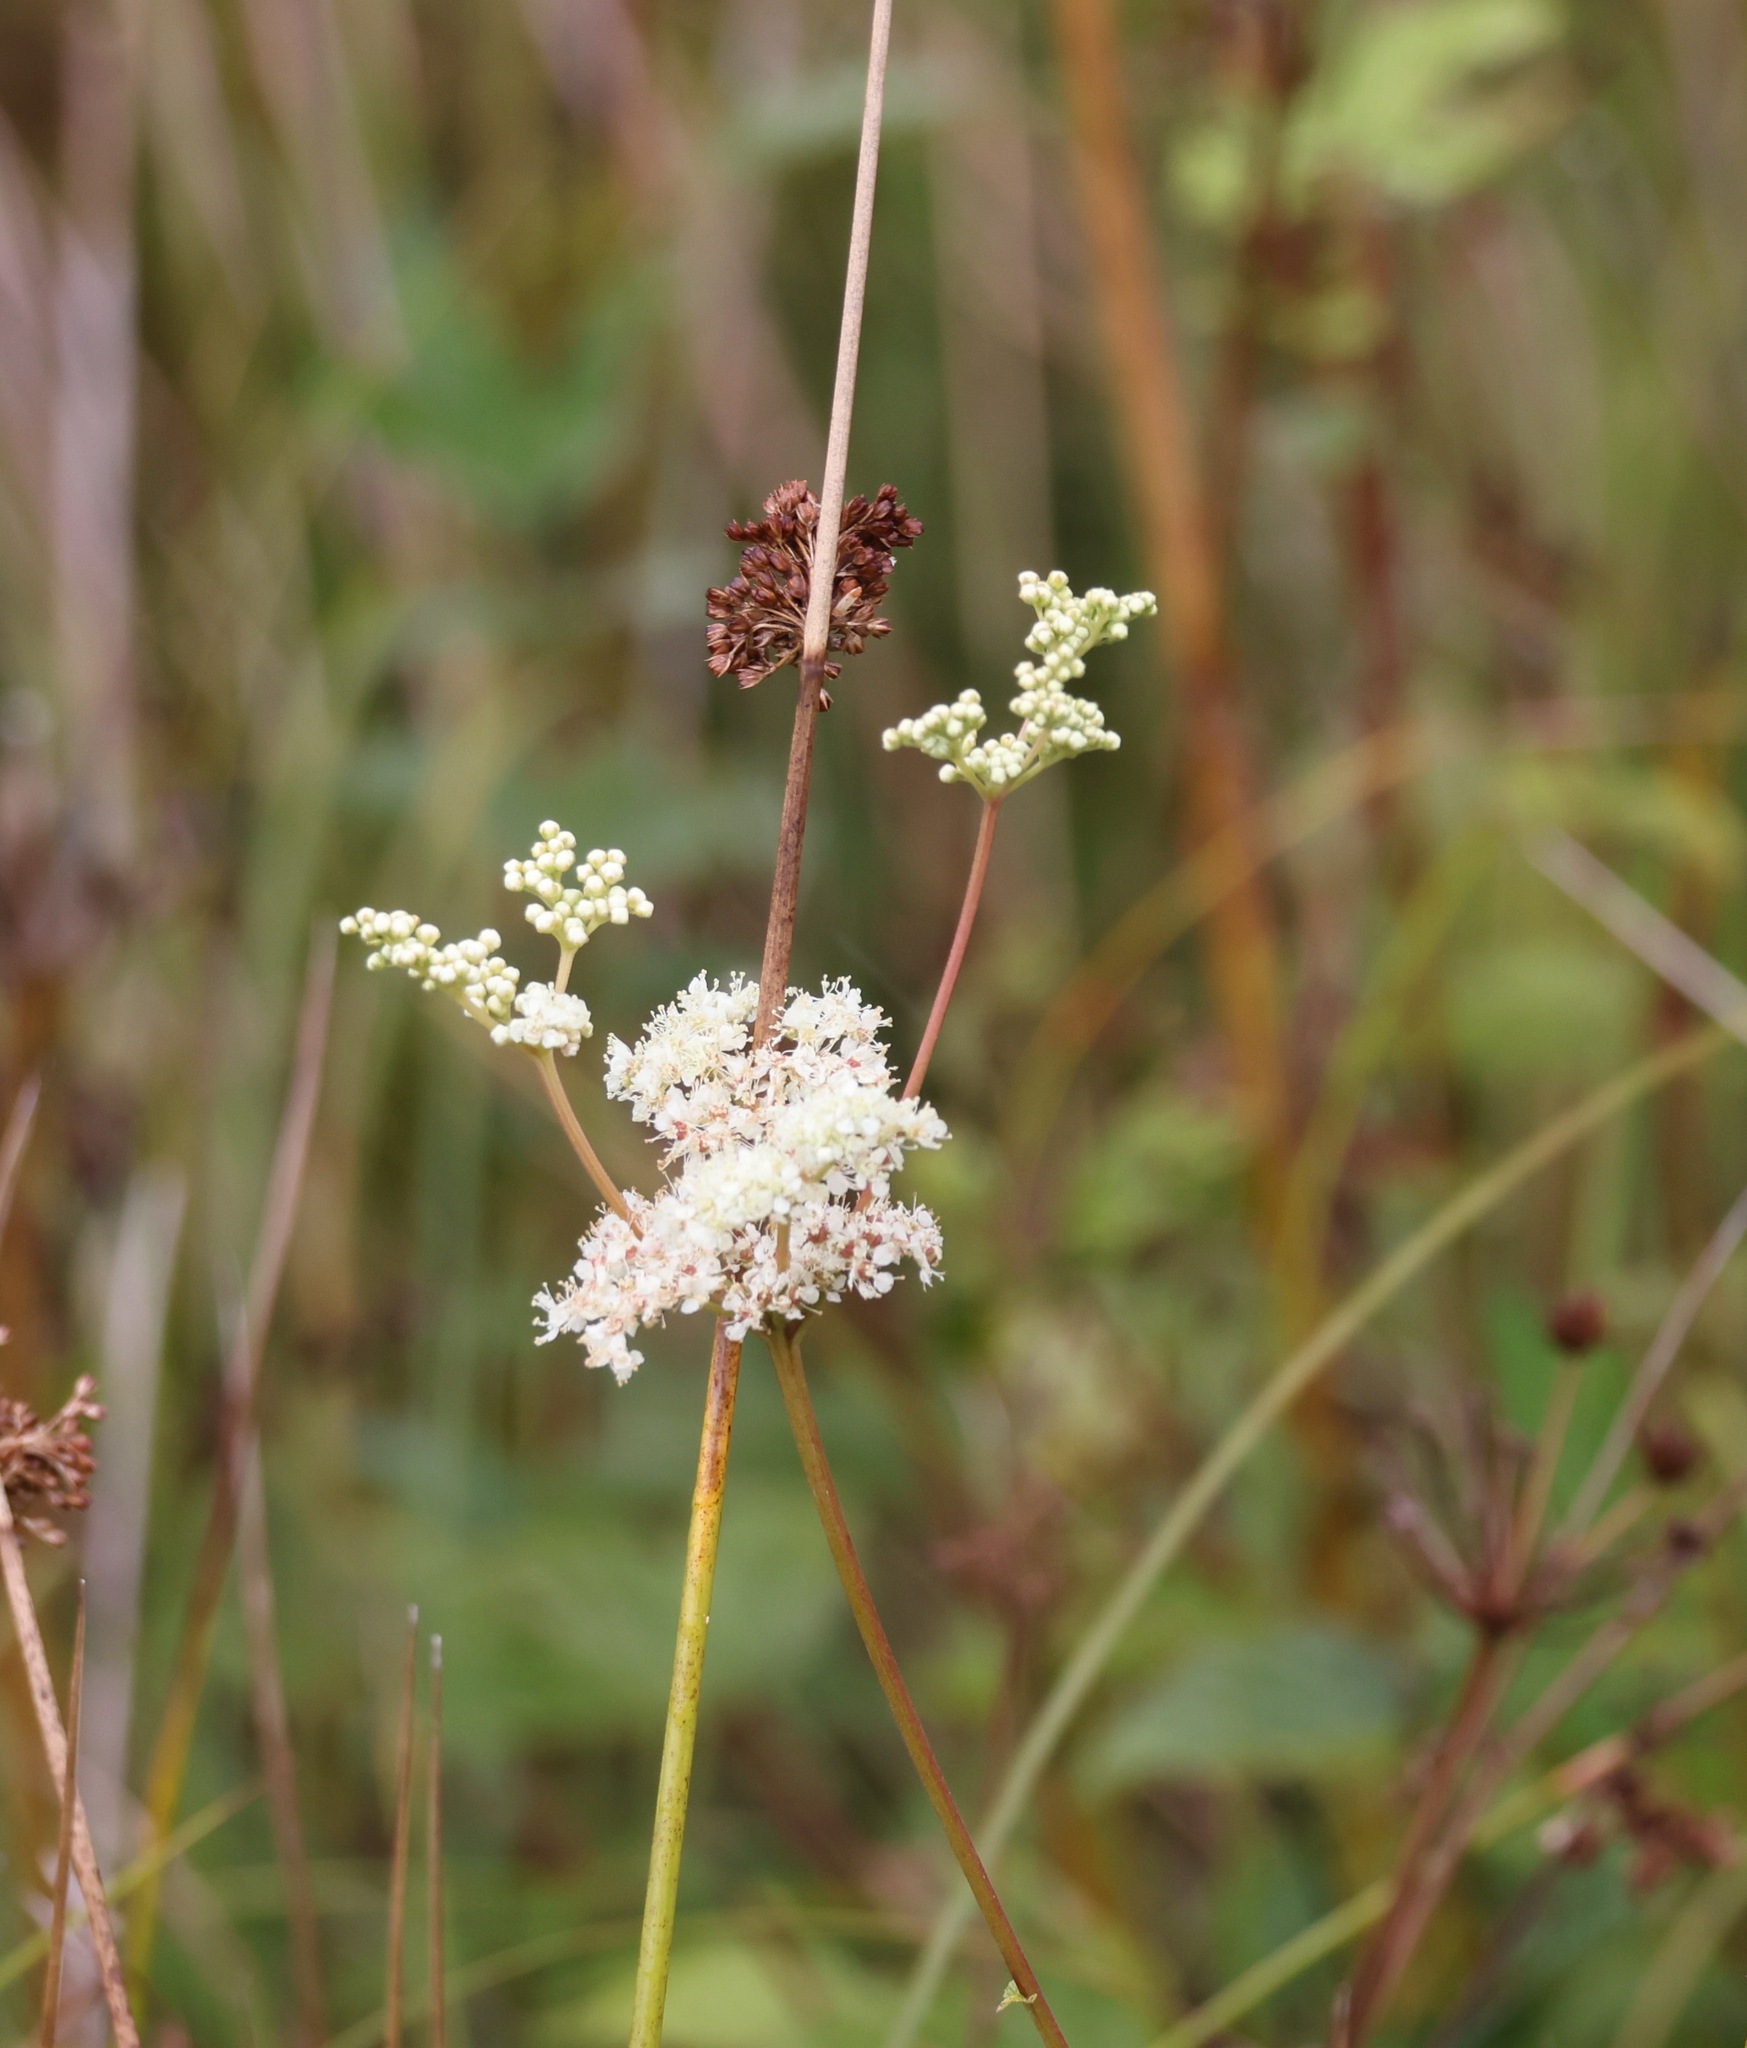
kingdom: Plantae
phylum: Tracheophyta
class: Magnoliopsida
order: Rosales
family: Rosaceae
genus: Filipendula
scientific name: Filipendula ulmaria
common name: Meadowsweet
